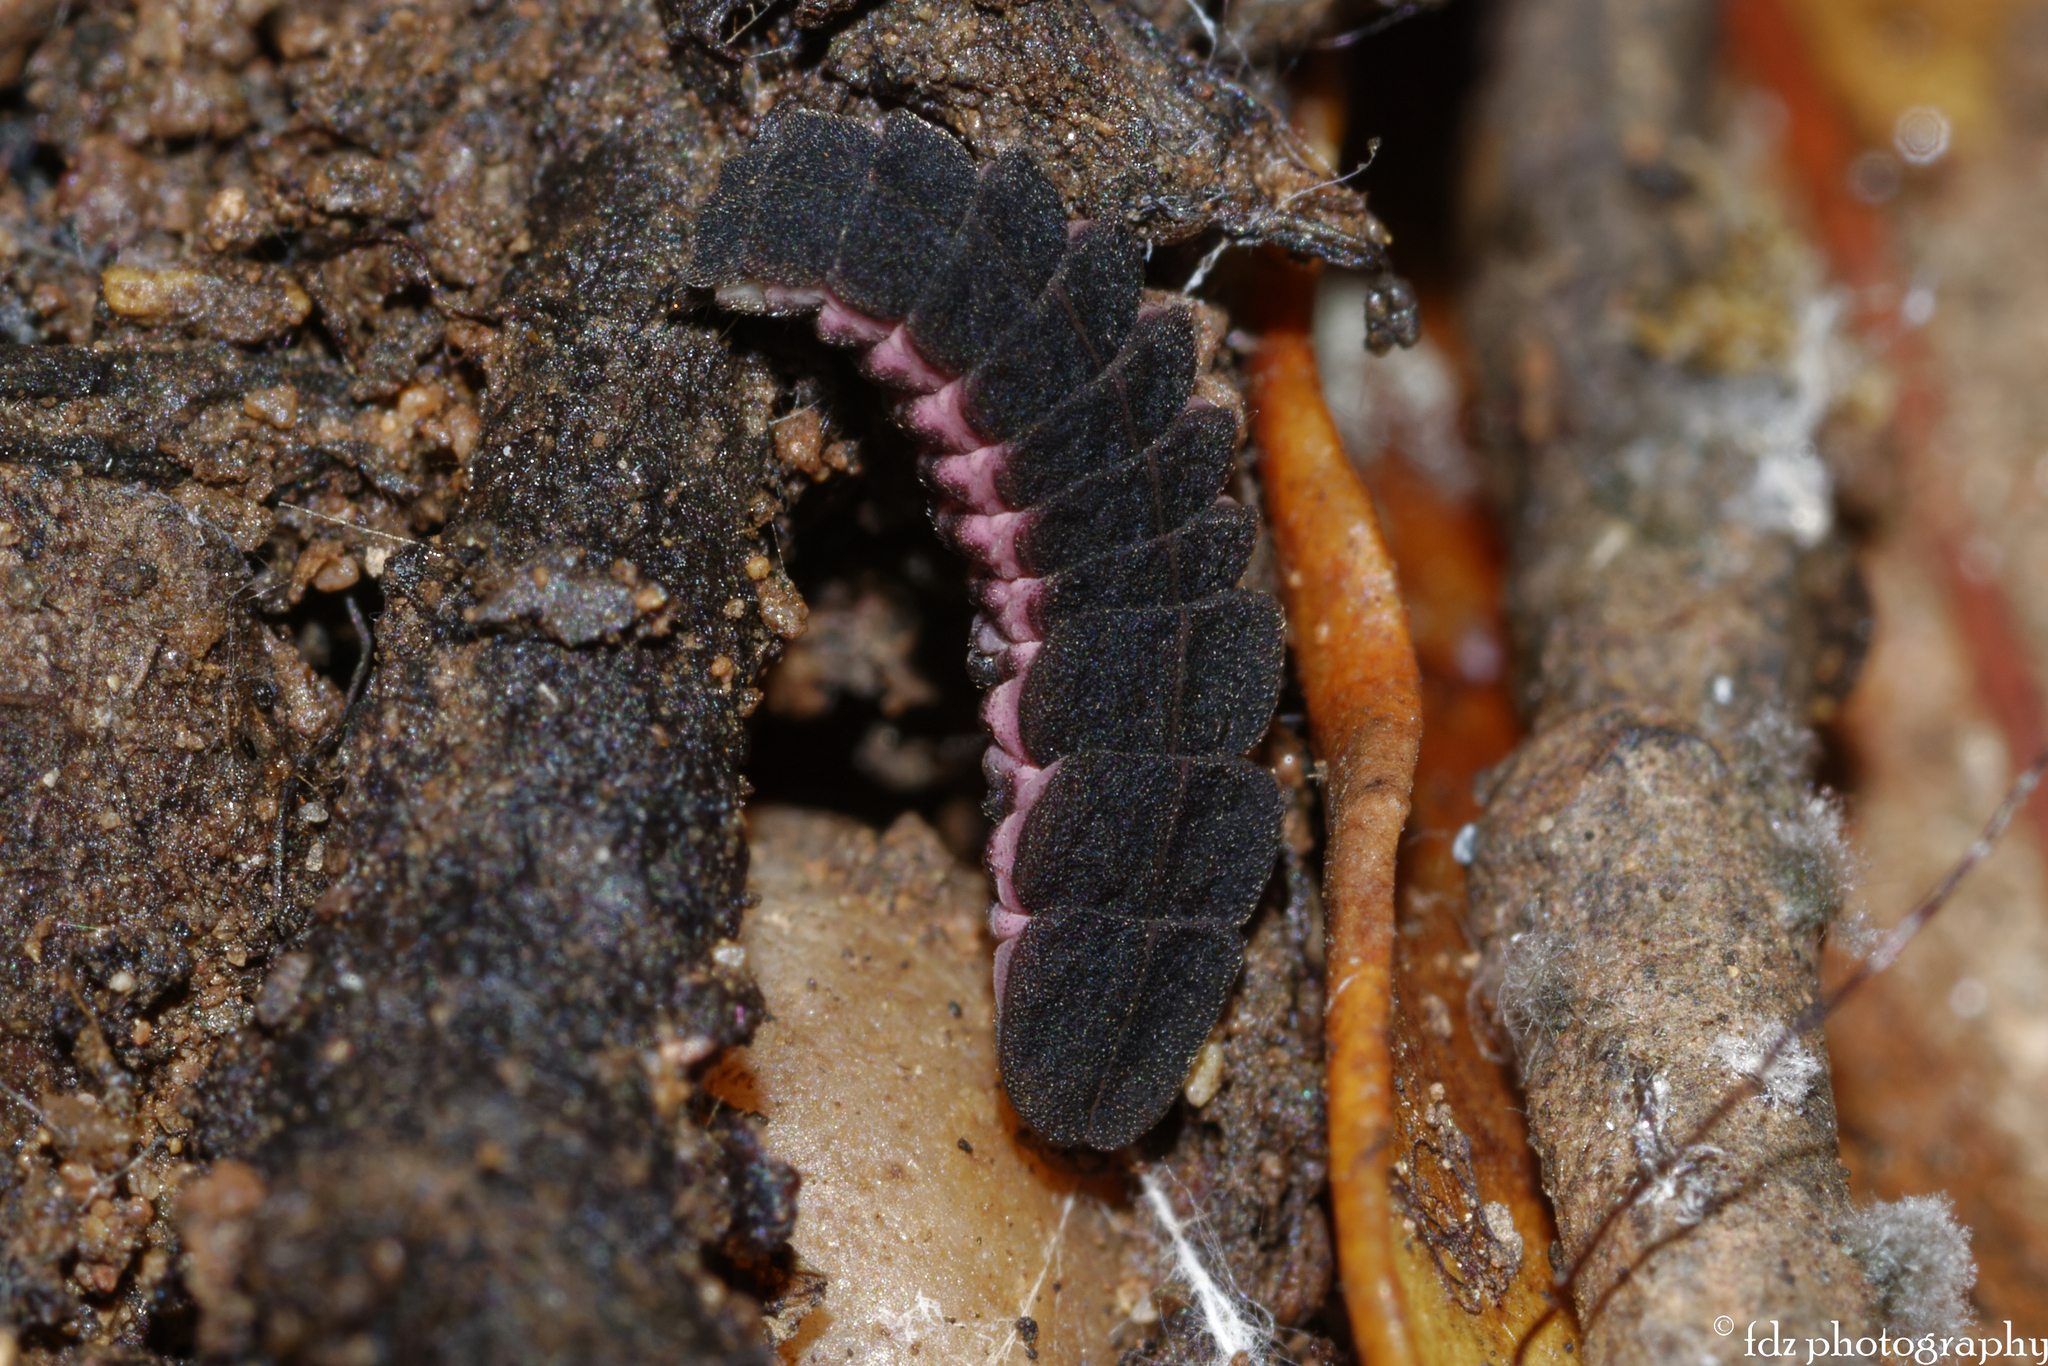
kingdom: Animalia
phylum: Arthropoda
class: Insecta
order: Coleoptera
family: Lampyridae
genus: Nyctophila
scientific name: Nyctophila reichii
